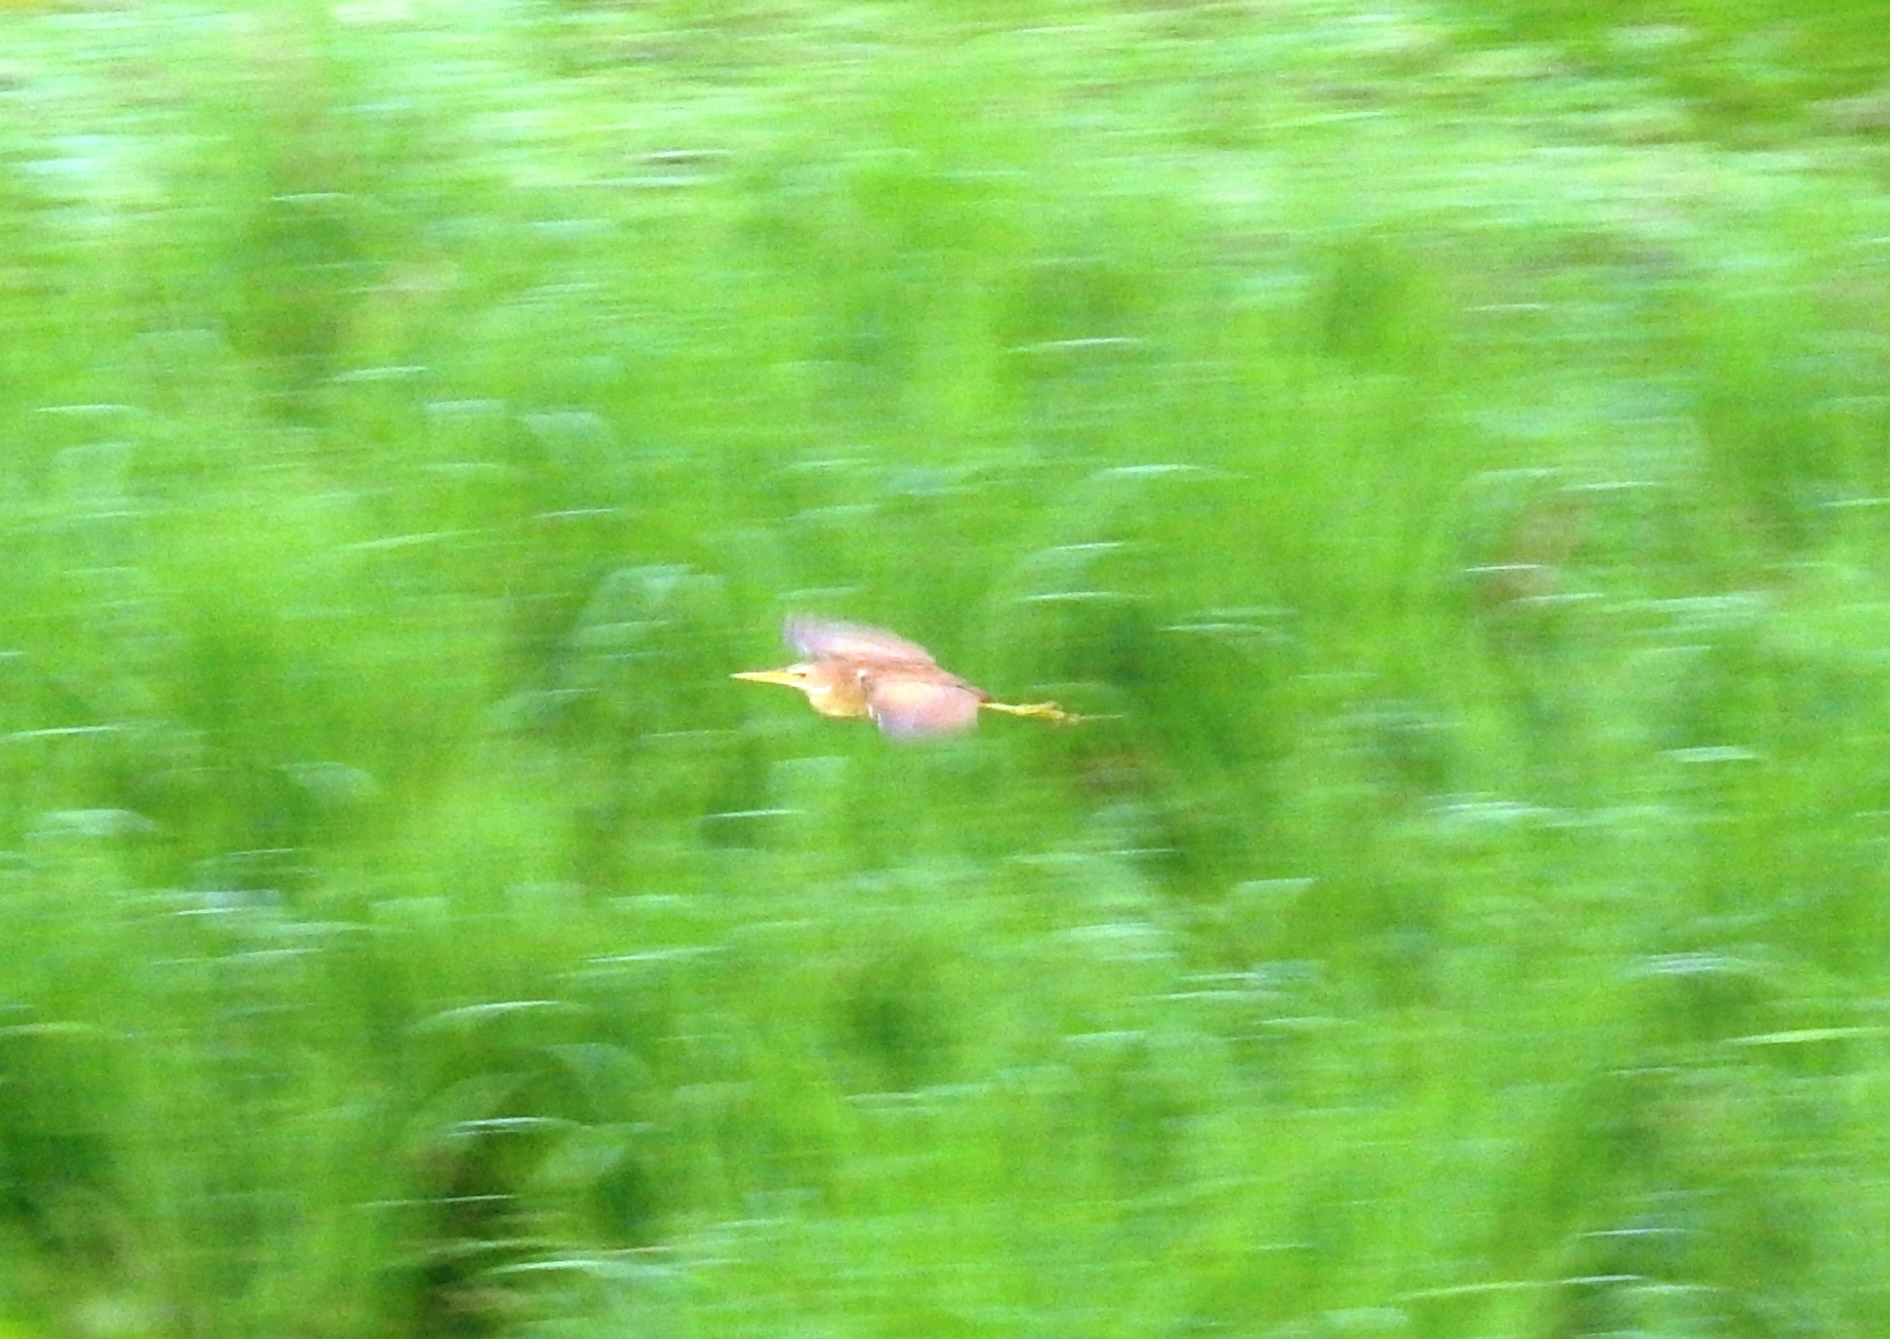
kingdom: Animalia
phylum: Chordata
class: Aves
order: Pelecaniformes
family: Ardeidae
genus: Ixobrychus
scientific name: Ixobrychus sinensis
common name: Yellow bittern
